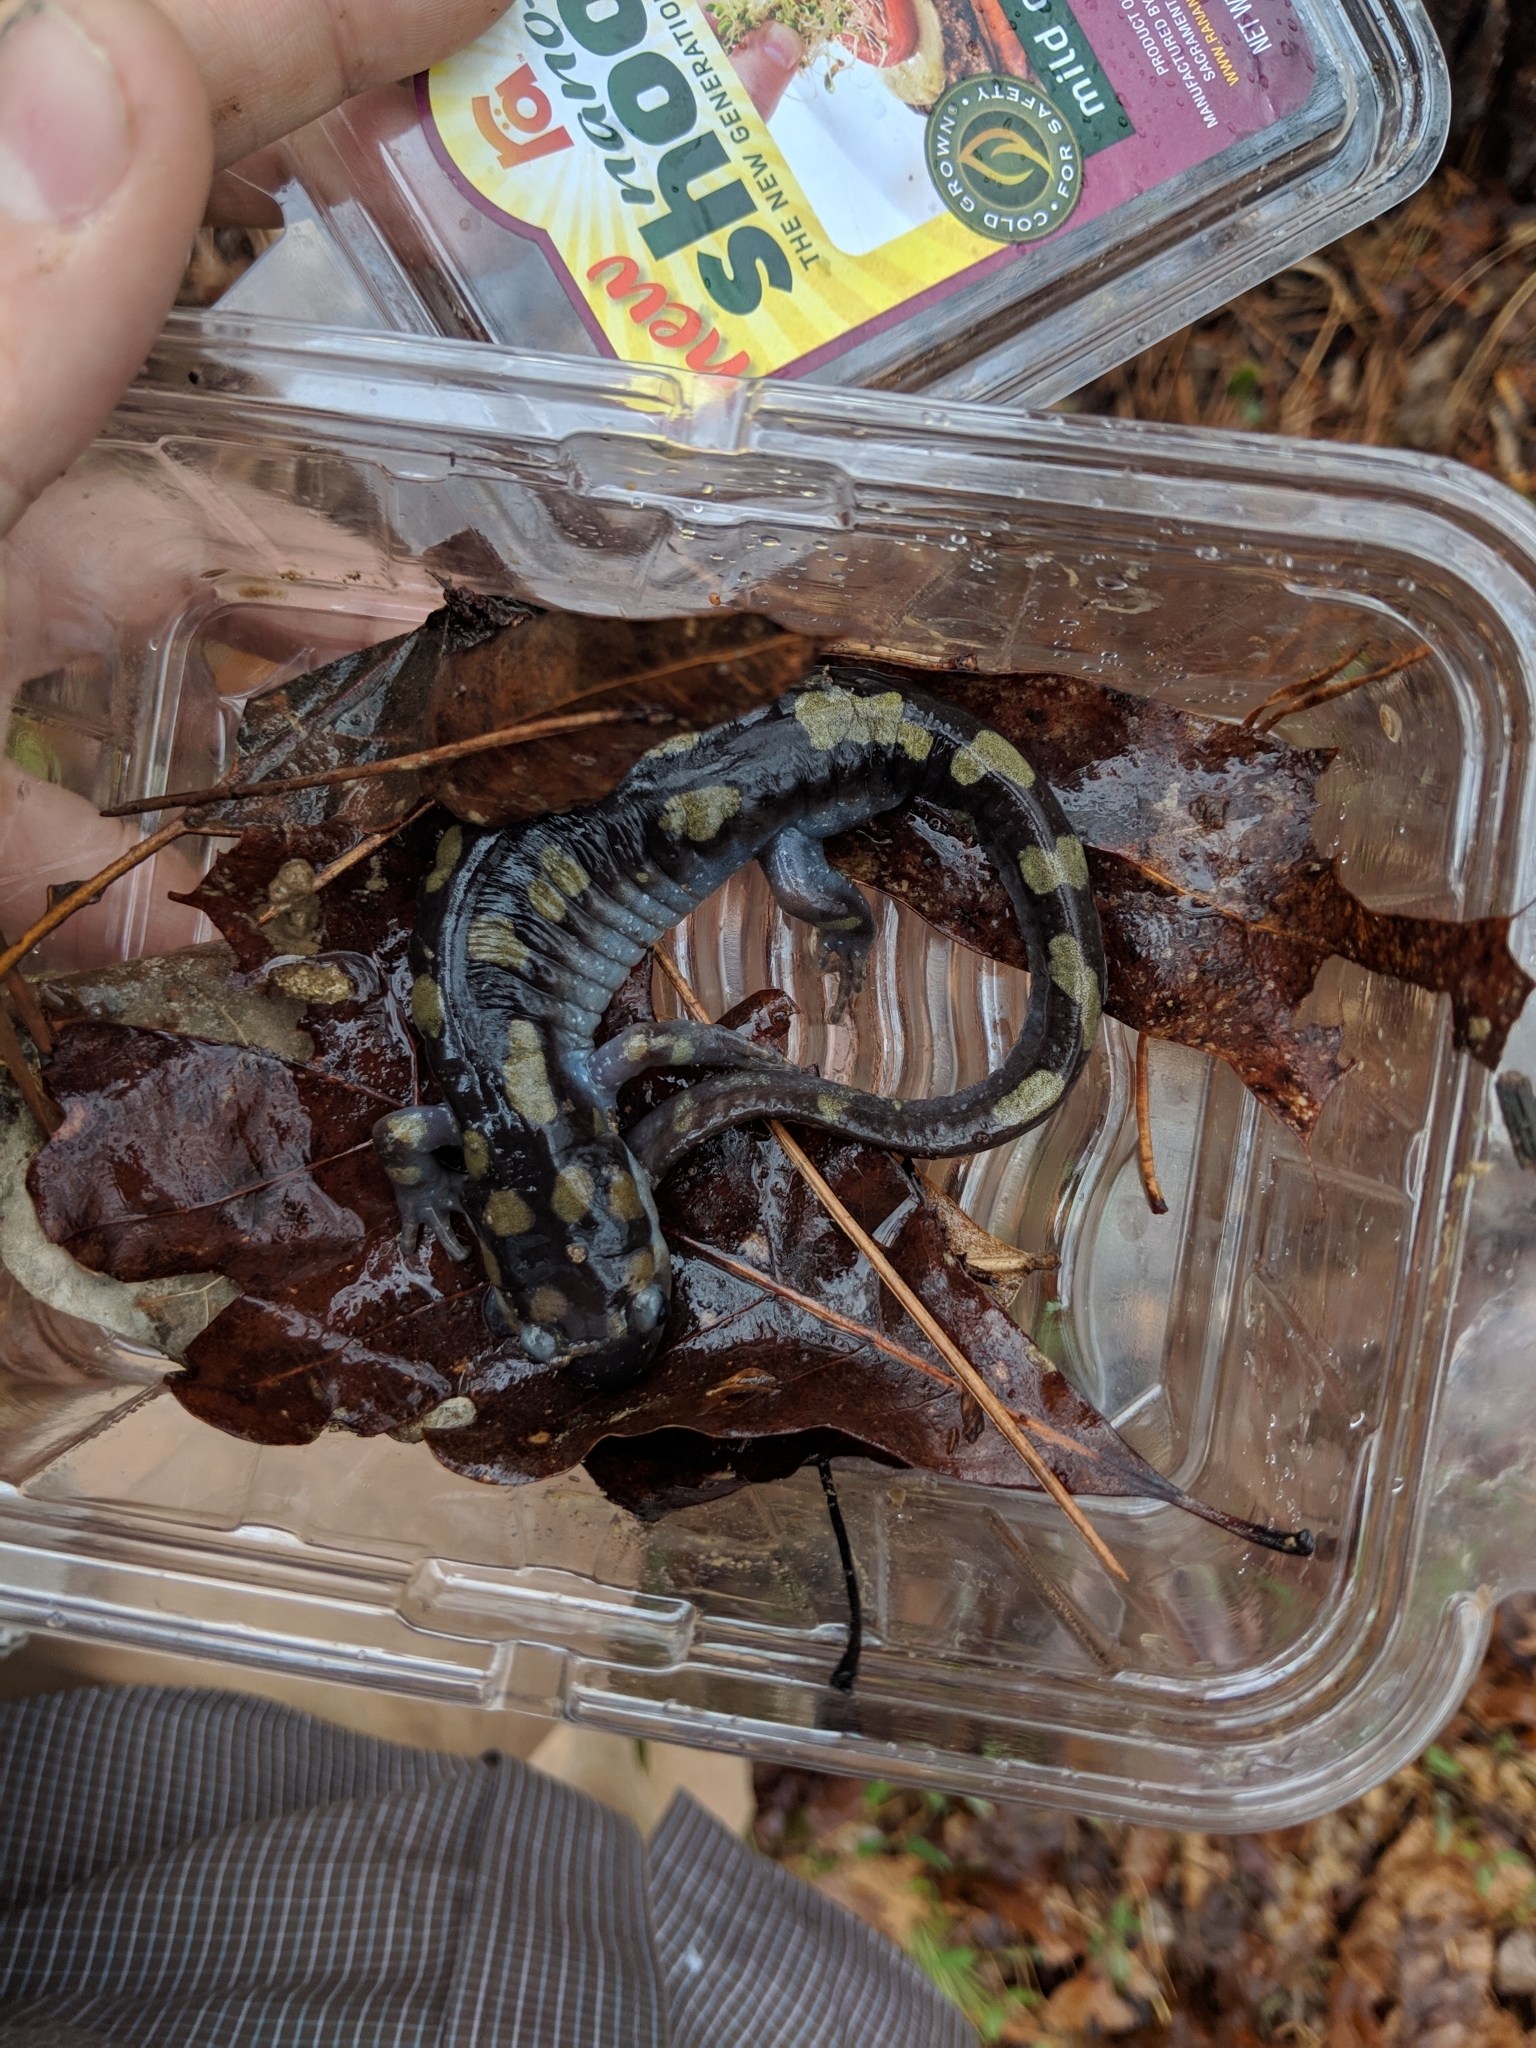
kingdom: Animalia
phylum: Chordata
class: Amphibia
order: Caudata
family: Ambystomatidae
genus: Ambystoma
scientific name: Ambystoma maculatum
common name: Spotted salamander
